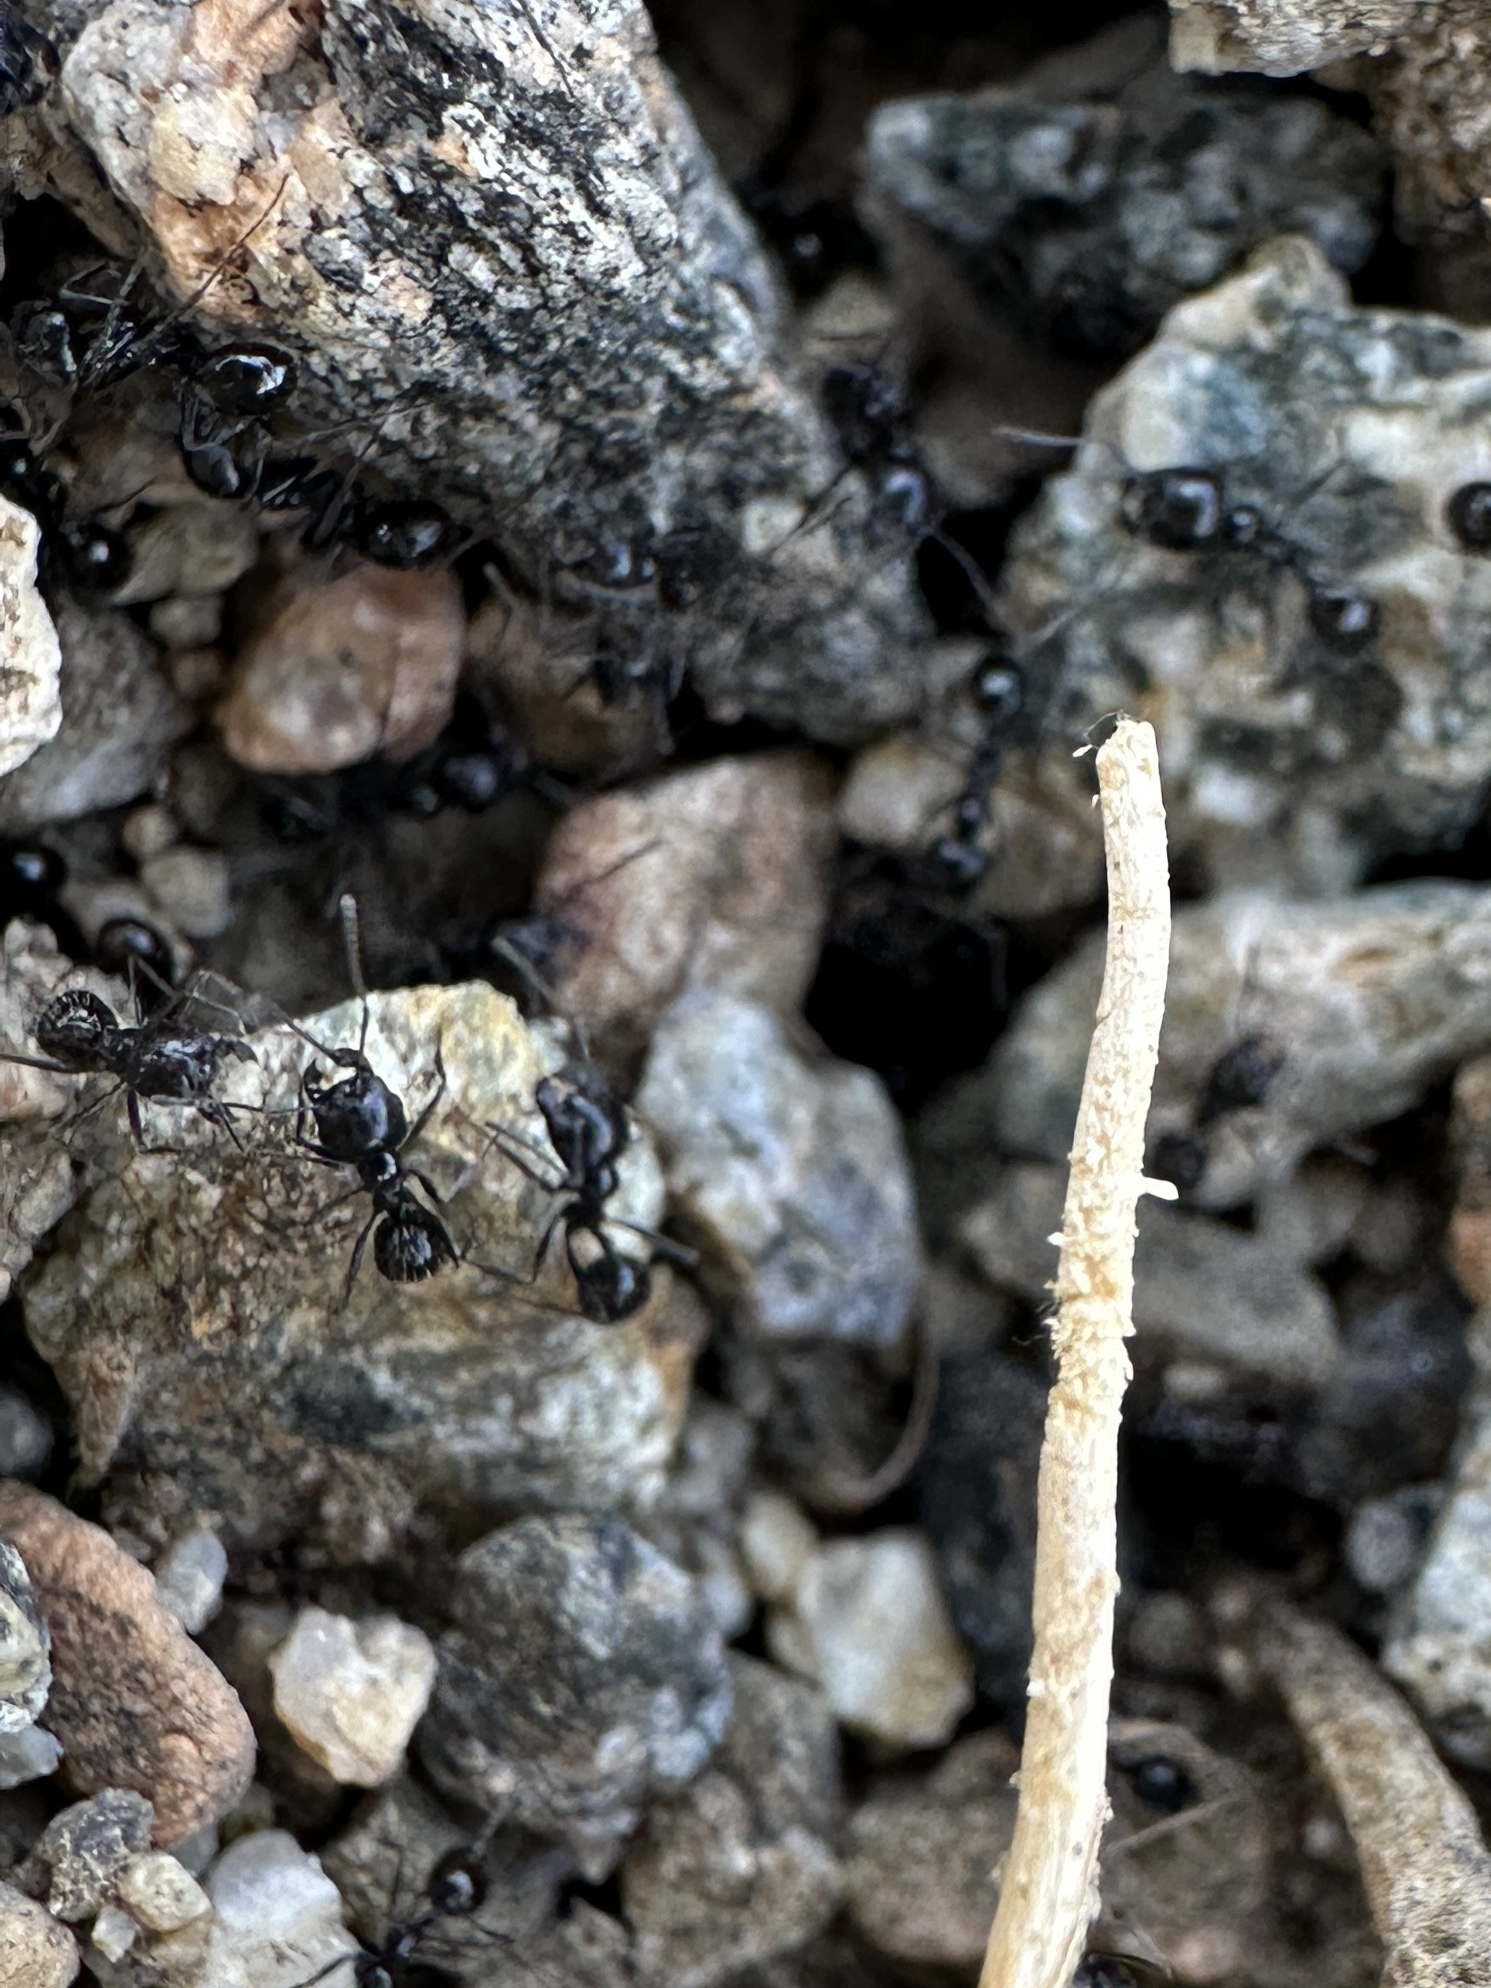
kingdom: Animalia
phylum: Arthropoda
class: Insecta
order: Hymenoptera
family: Formicidae
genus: Messor
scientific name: Messor pergandei
